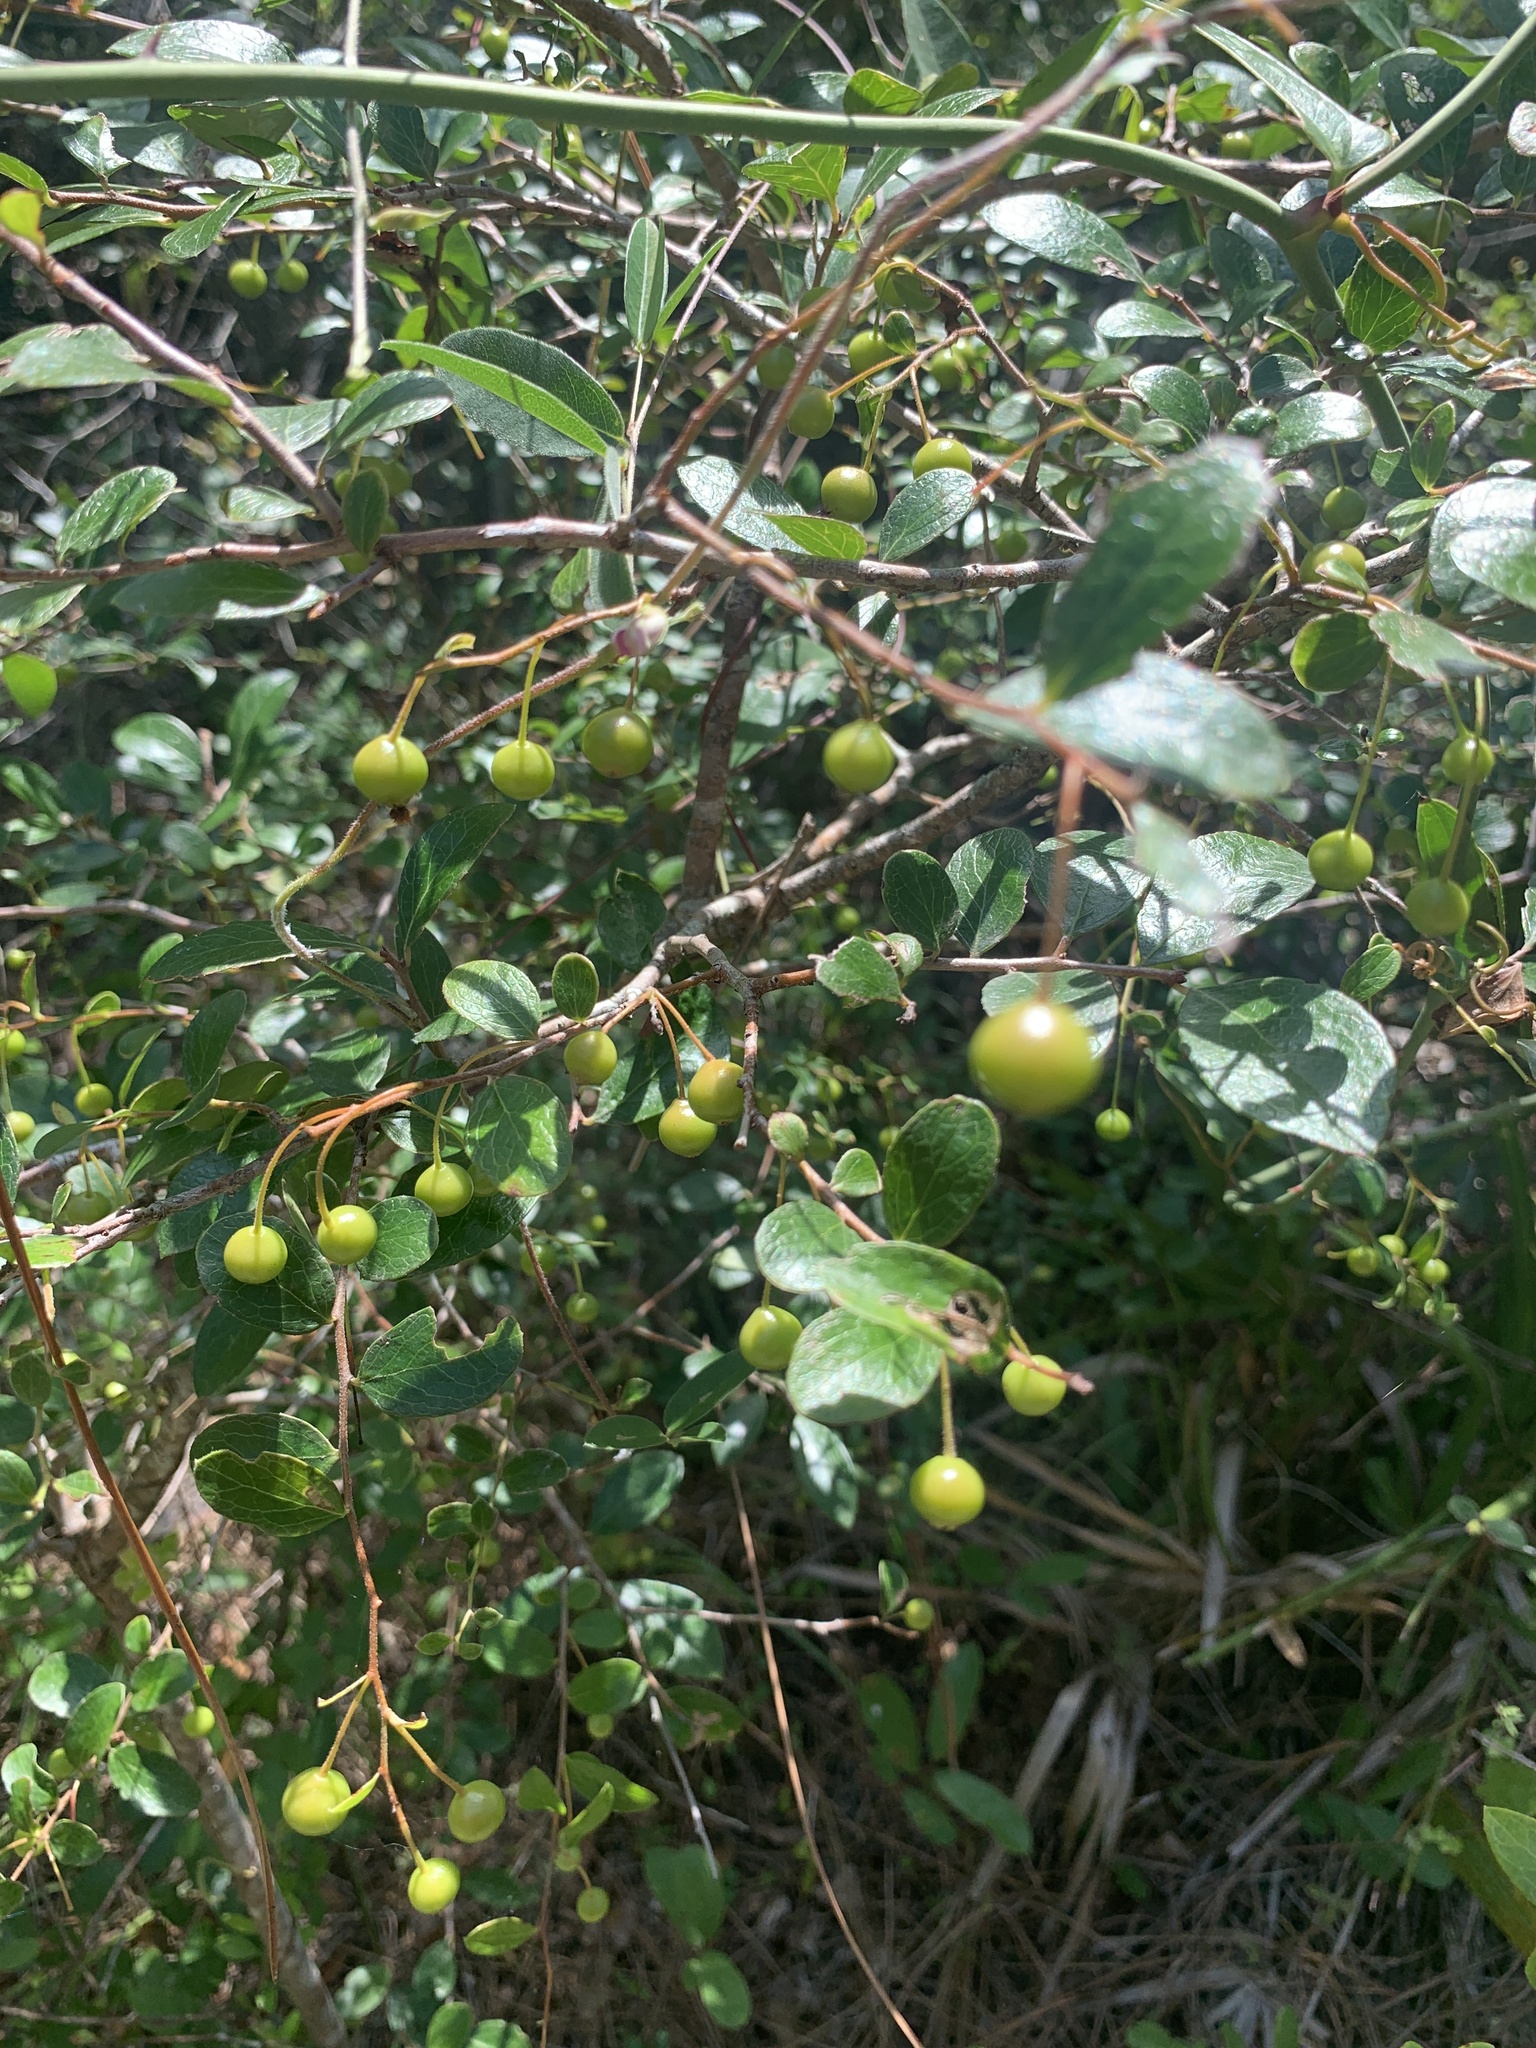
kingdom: Plantae
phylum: Tracheophyta
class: Magnoliopsida
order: Ericales
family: Ericaceae
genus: Vaccinium
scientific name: Vaccinium arboreum
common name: Farkleberry
